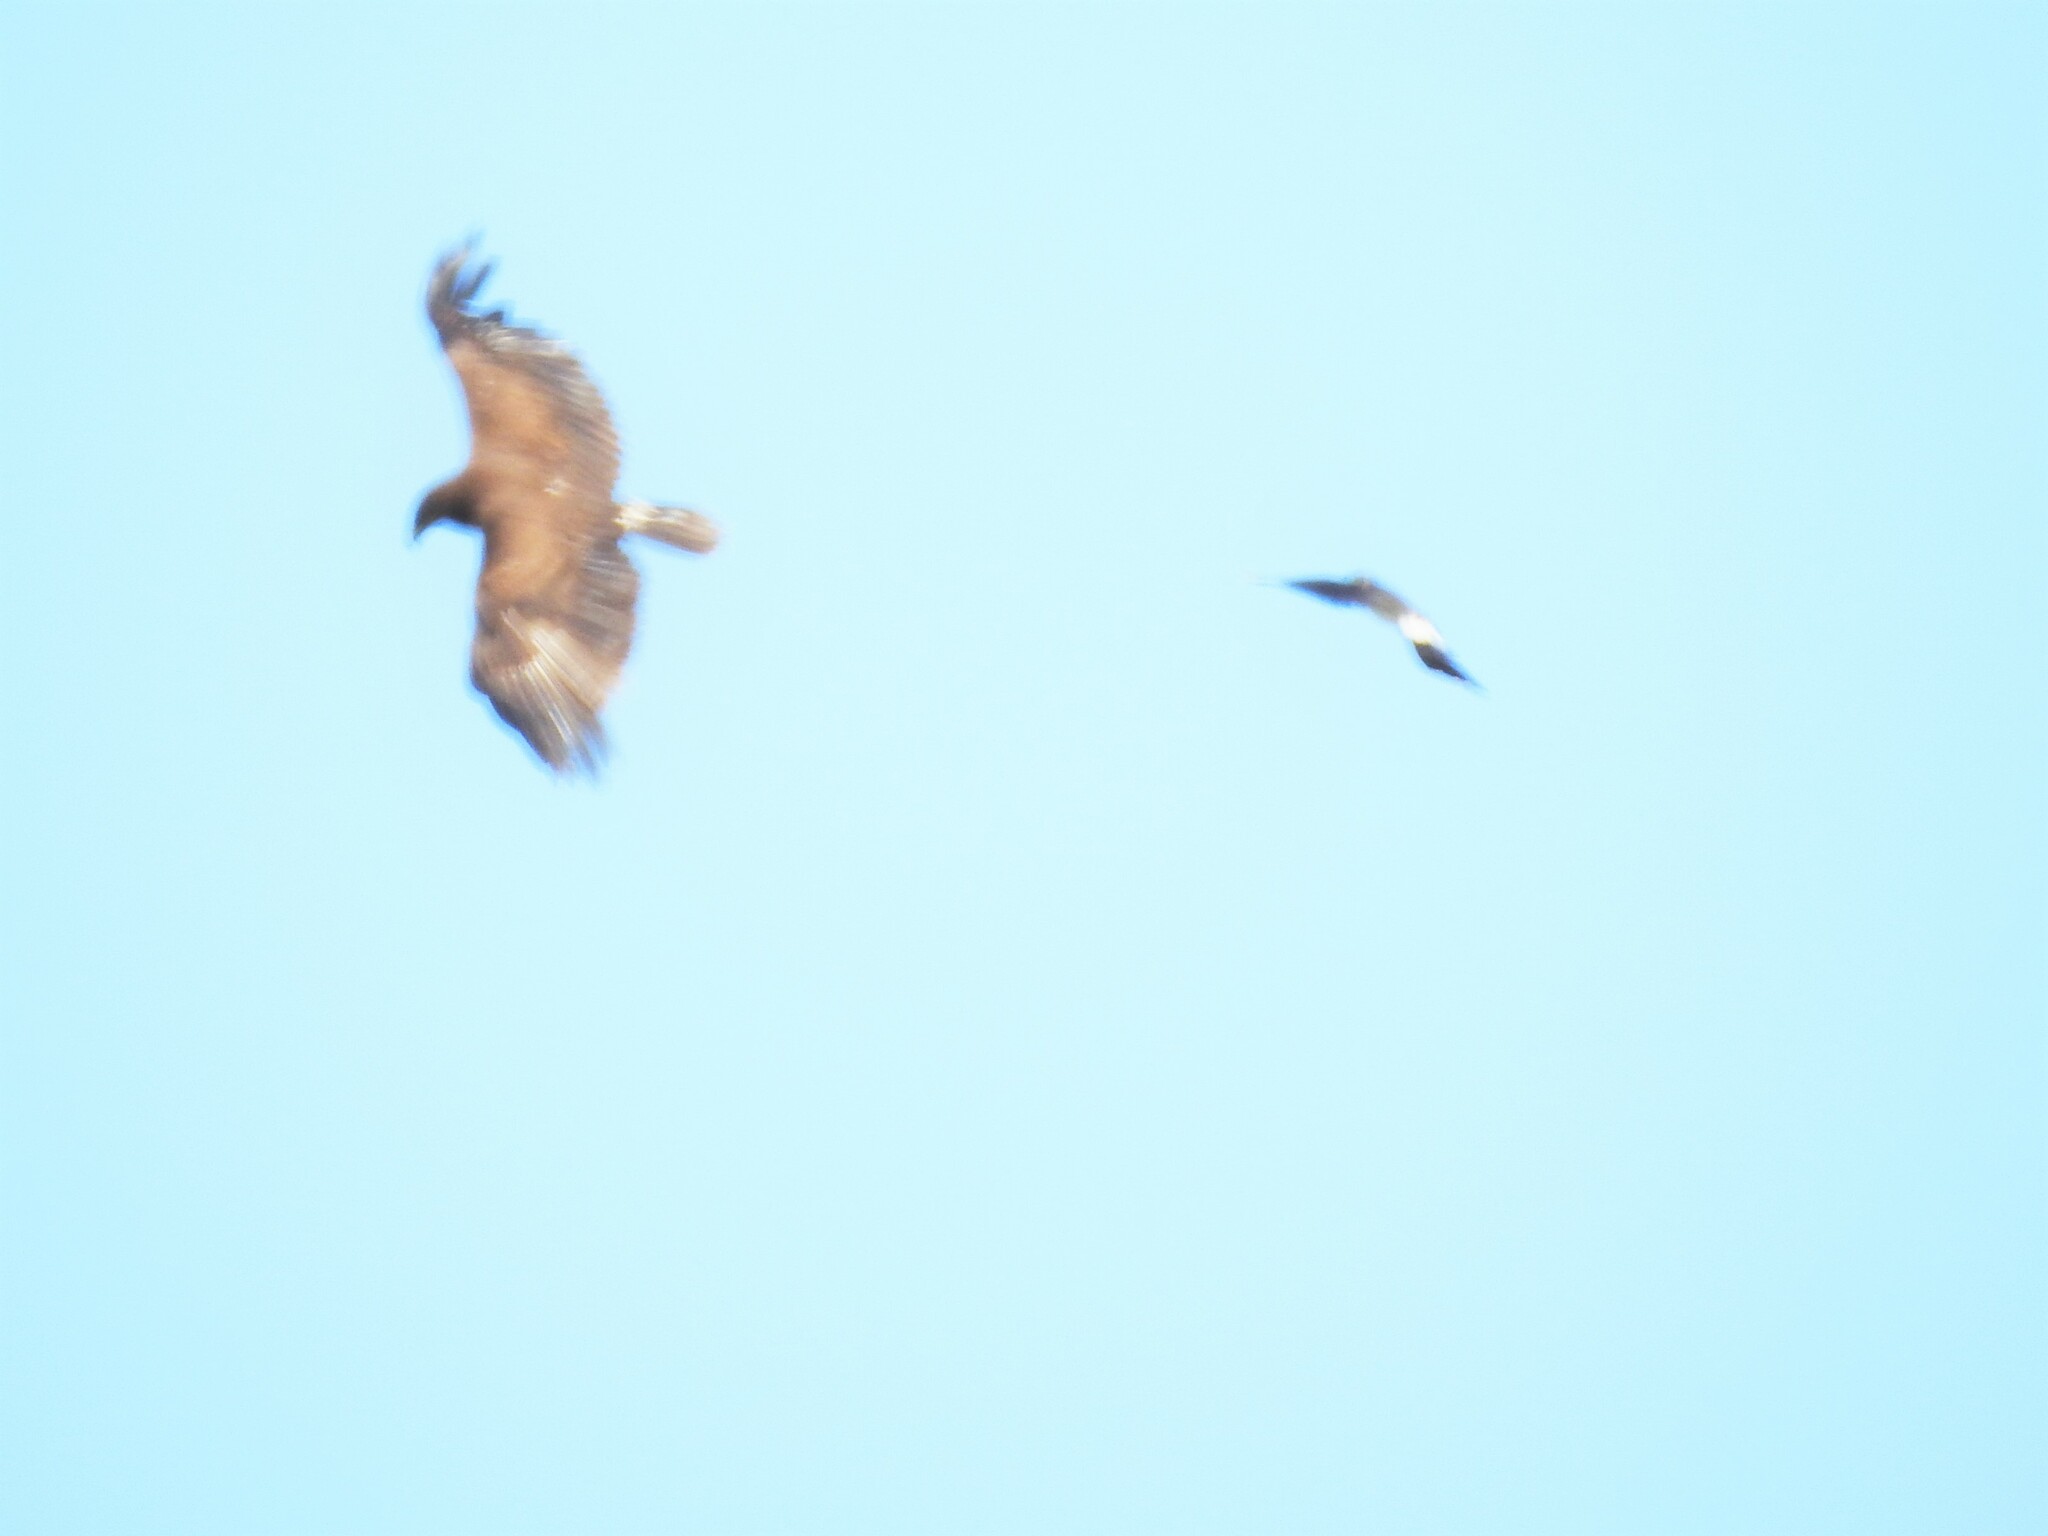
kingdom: Animalia
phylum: Chordata
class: Aves
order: Accipitriformes
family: Accipitridae
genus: Aquila
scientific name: Aquila clanga
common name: Greater spotted eagle
